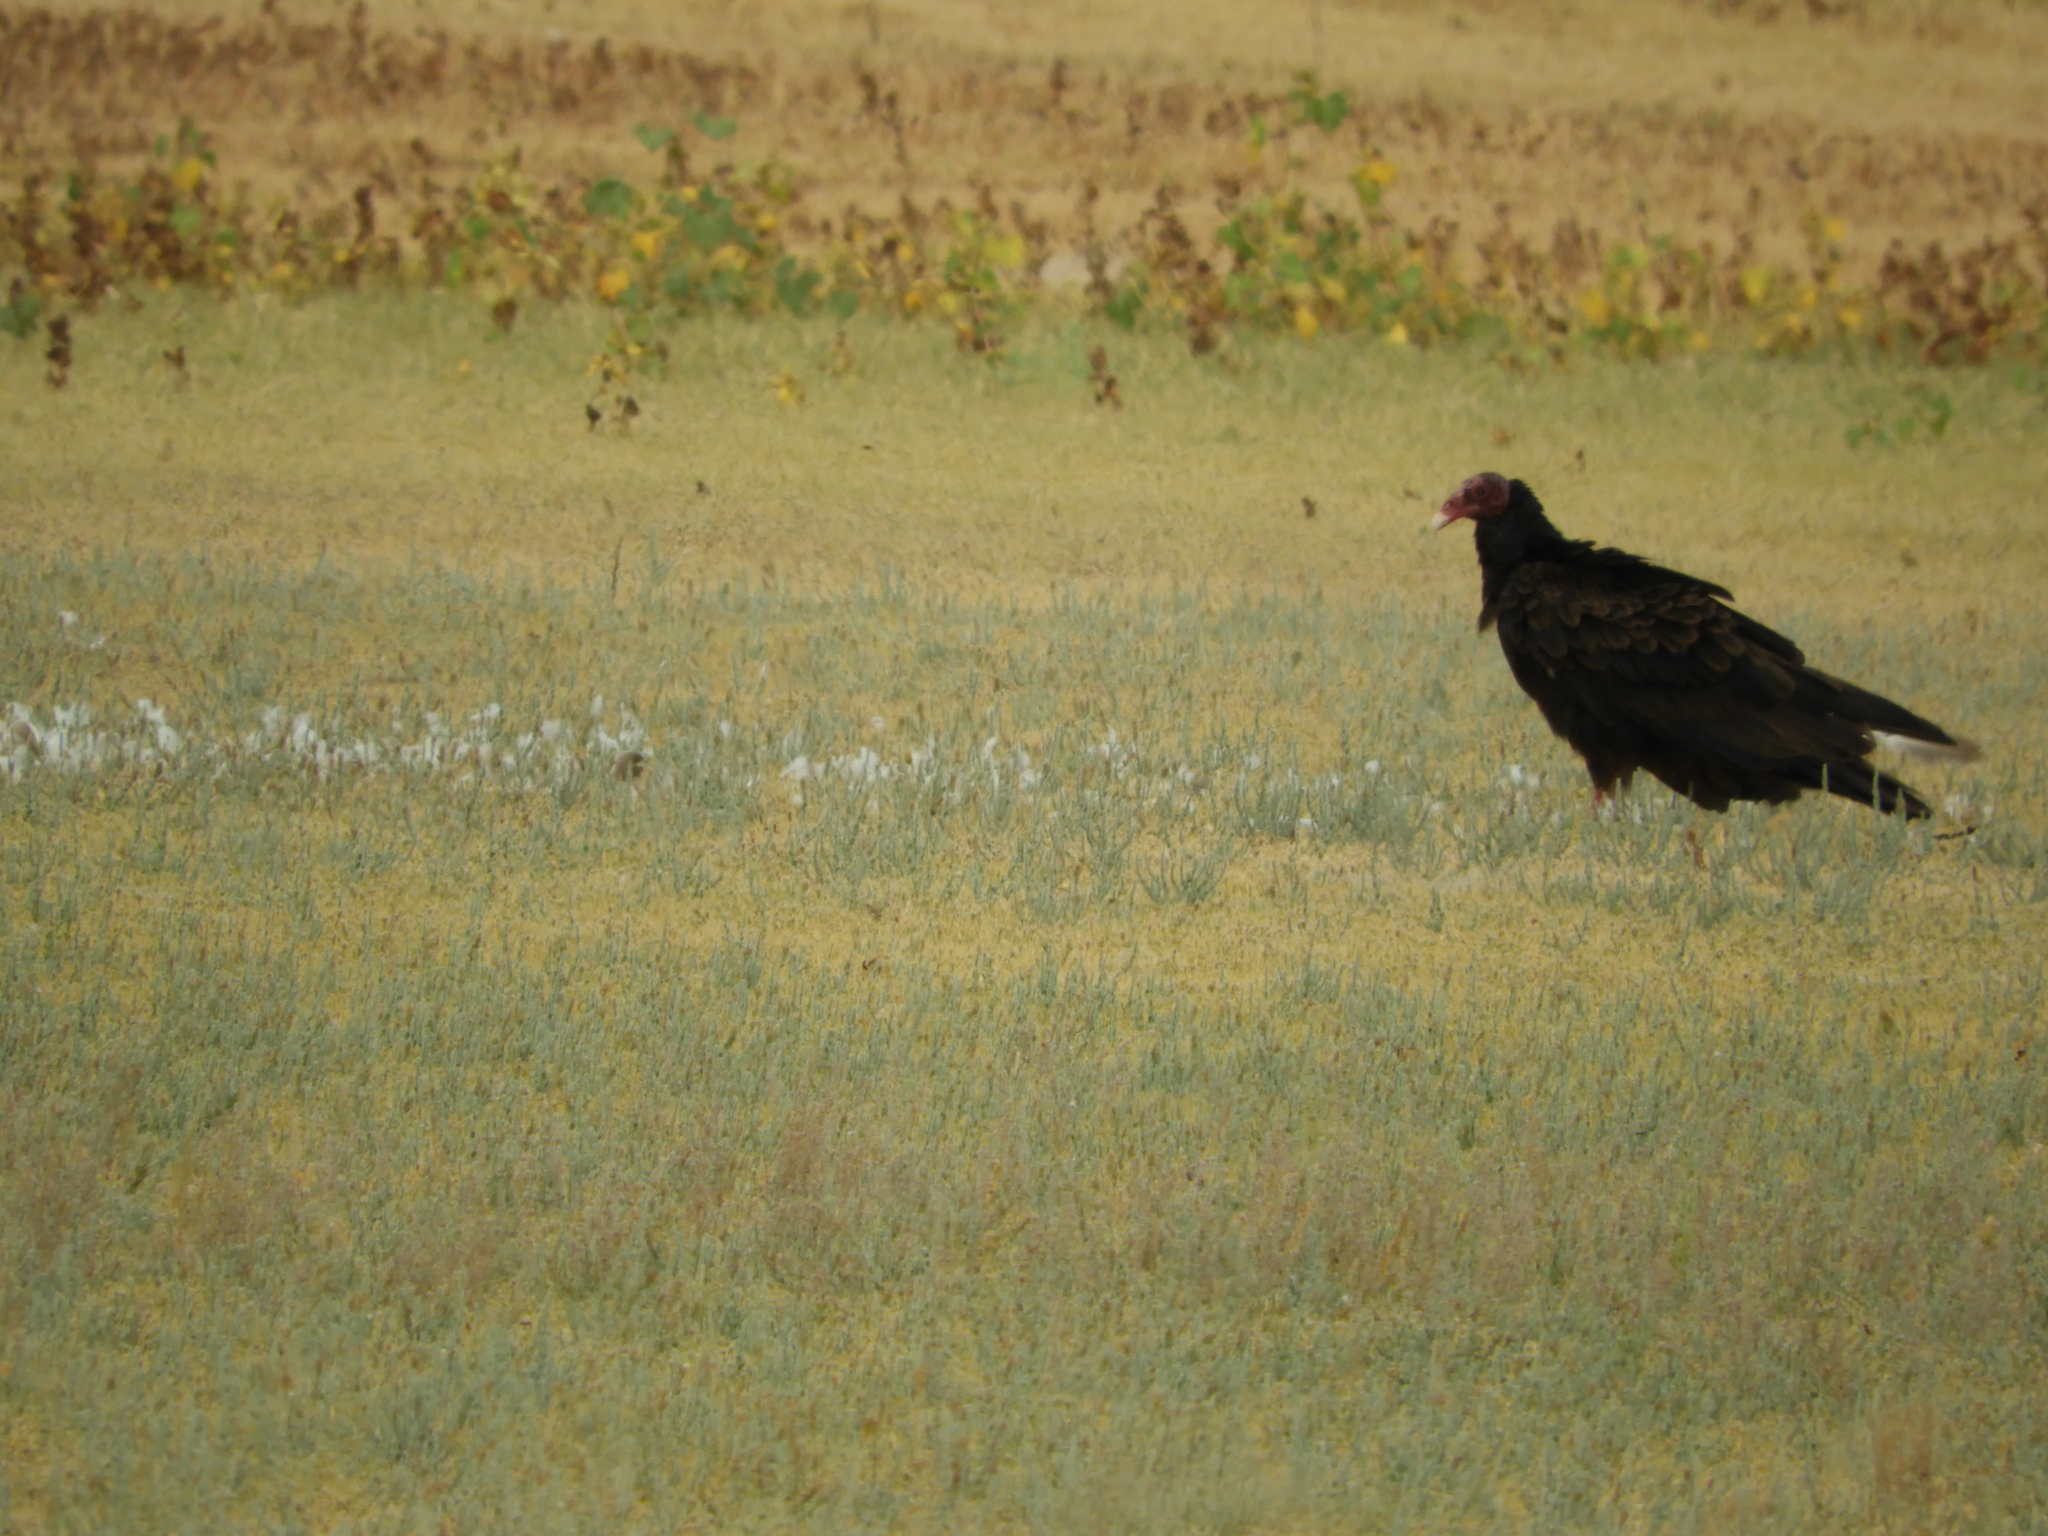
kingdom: Animalia
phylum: Chordata
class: Aves
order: Accipitriformes
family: Cathartidae
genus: Cathartes
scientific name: Cathartes aura
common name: Turkey vulture
